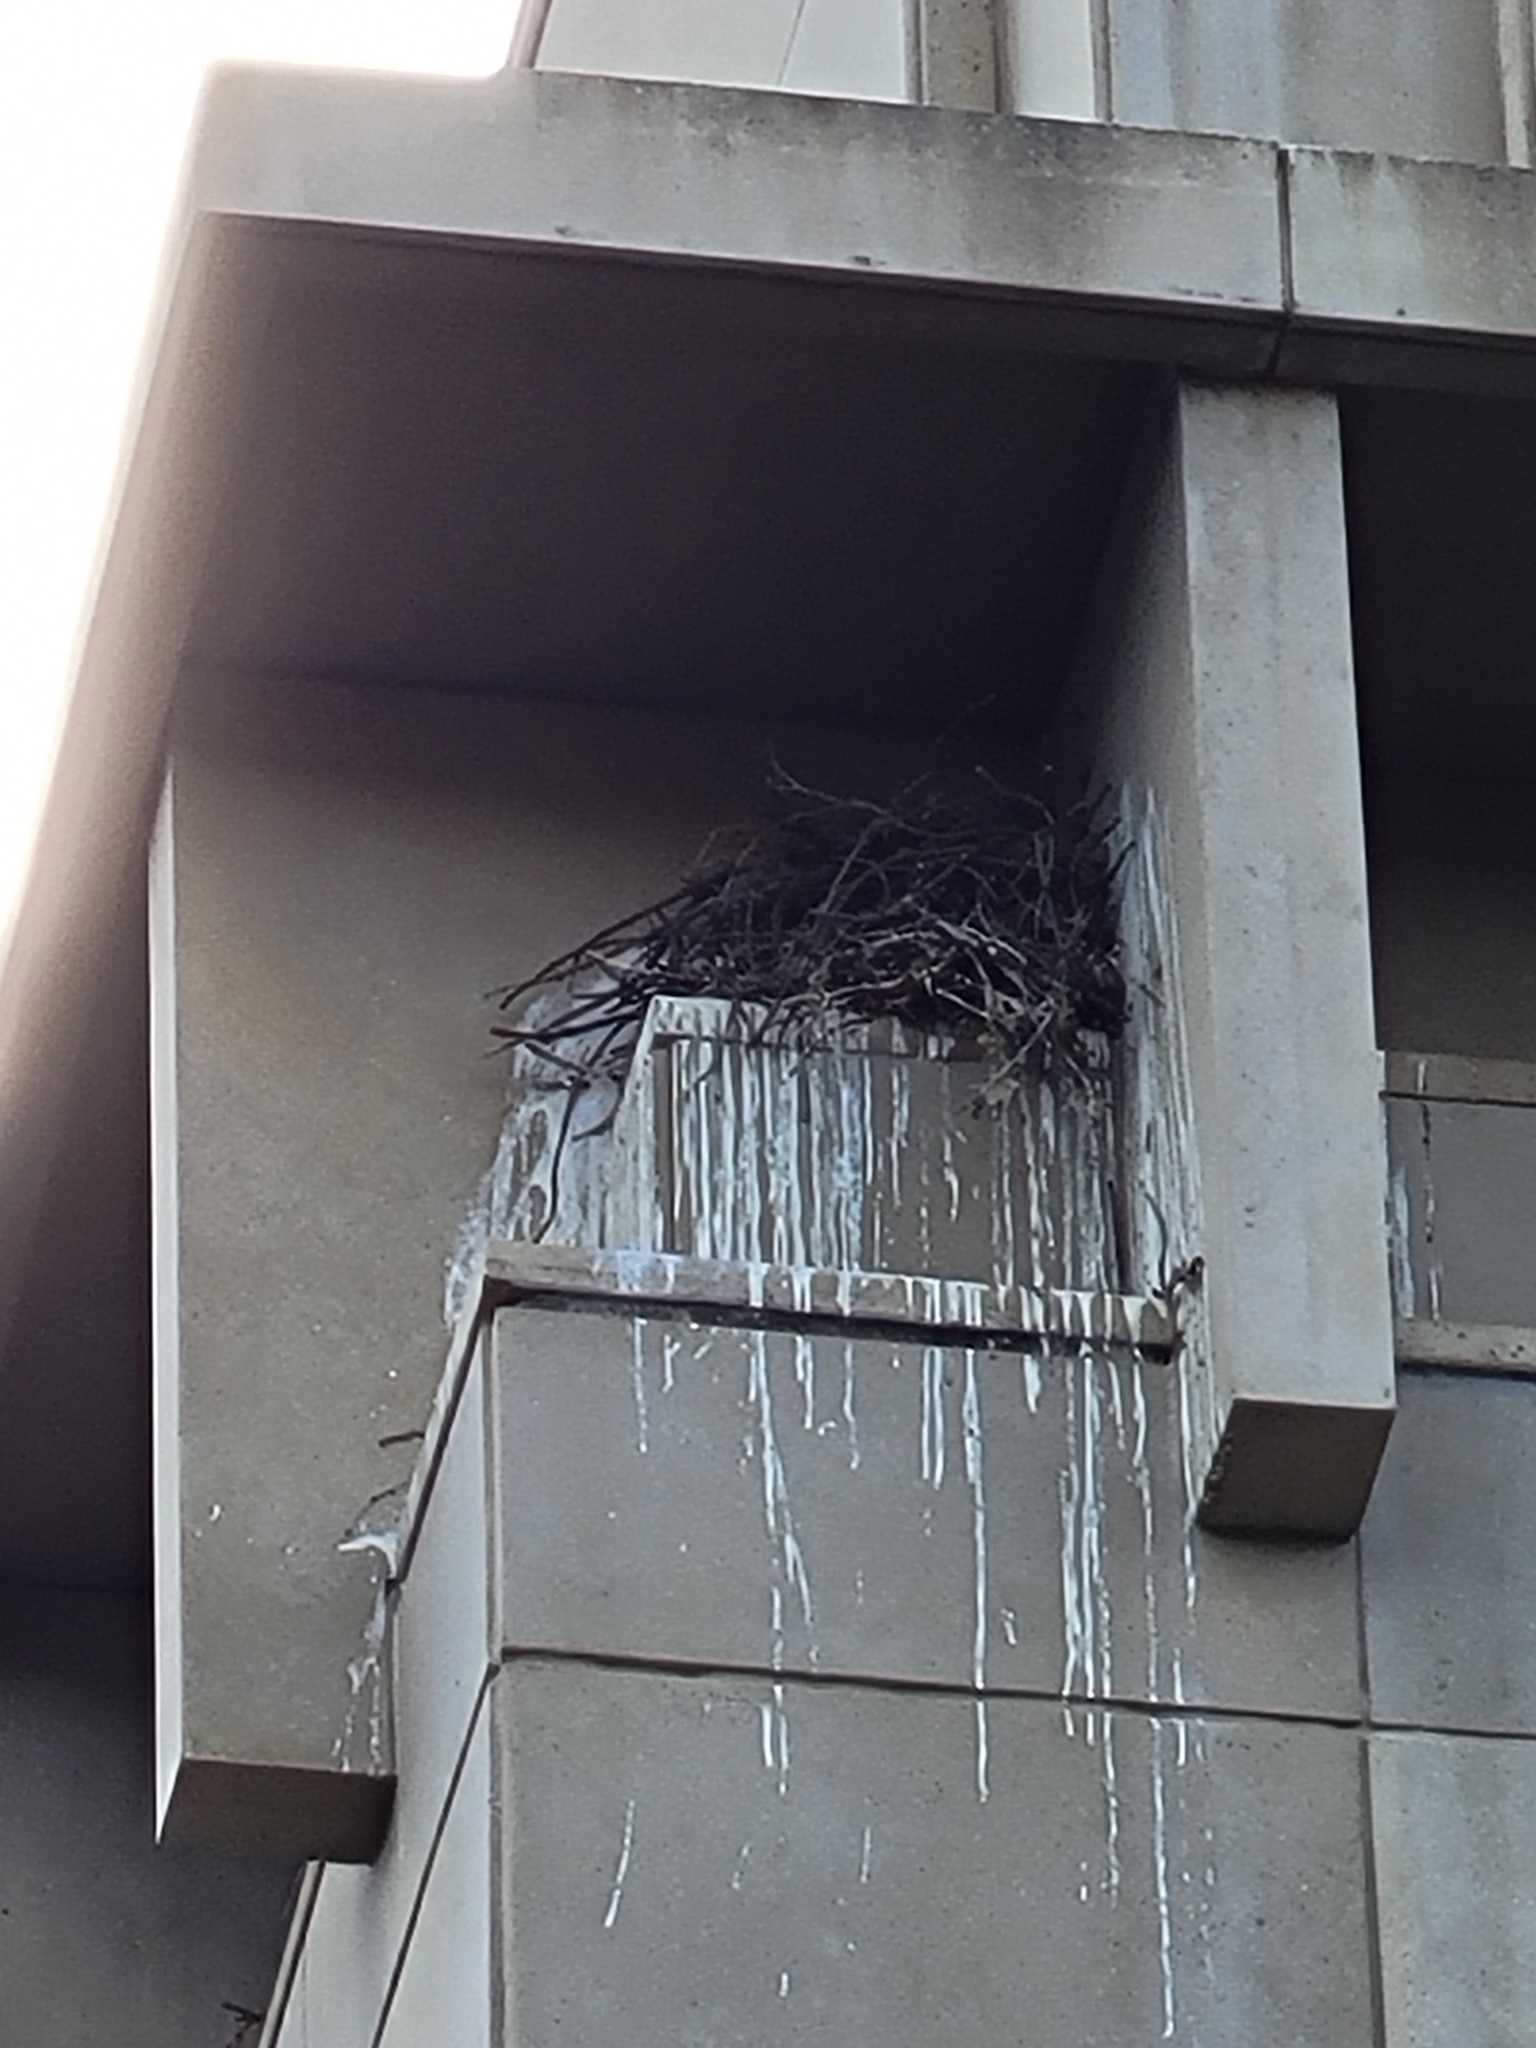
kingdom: Animalia
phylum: Chordata
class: Aves
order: Passeriformes
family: Corvidae
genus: Corvus
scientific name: Corvus corax
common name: Common raven
